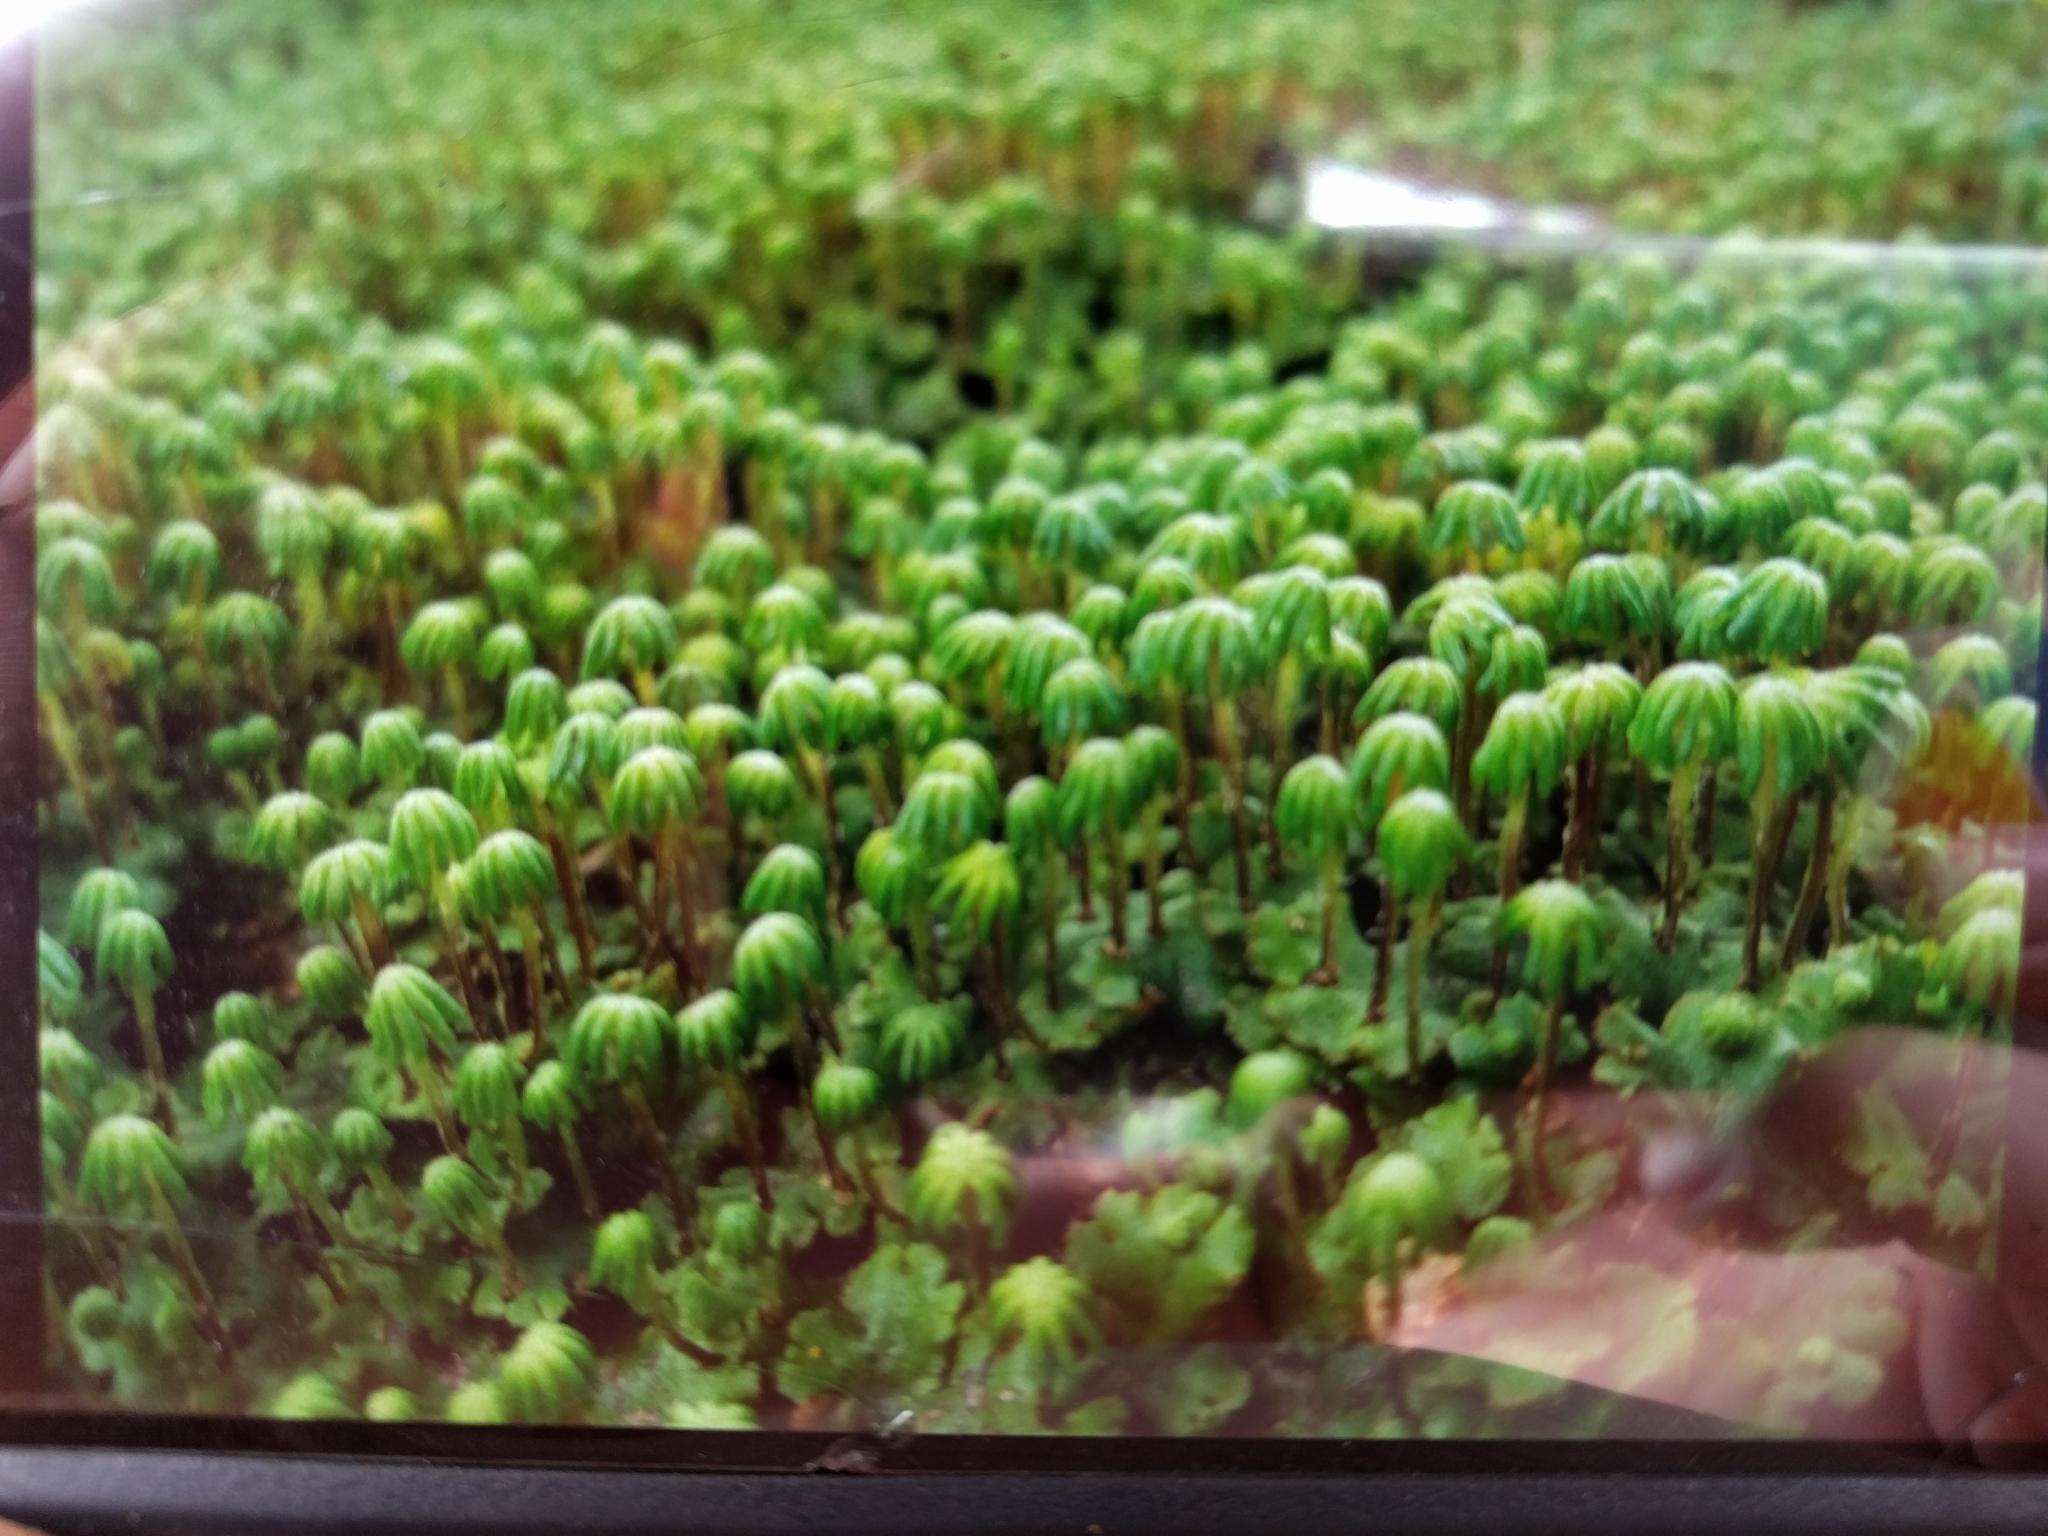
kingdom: Plantae
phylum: Marchantiophyta
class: Marchantiopsida
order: Marchantiales
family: Marchantiaceae
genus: Marchantia
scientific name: Marchantia polymorpha
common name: Common liverwort
